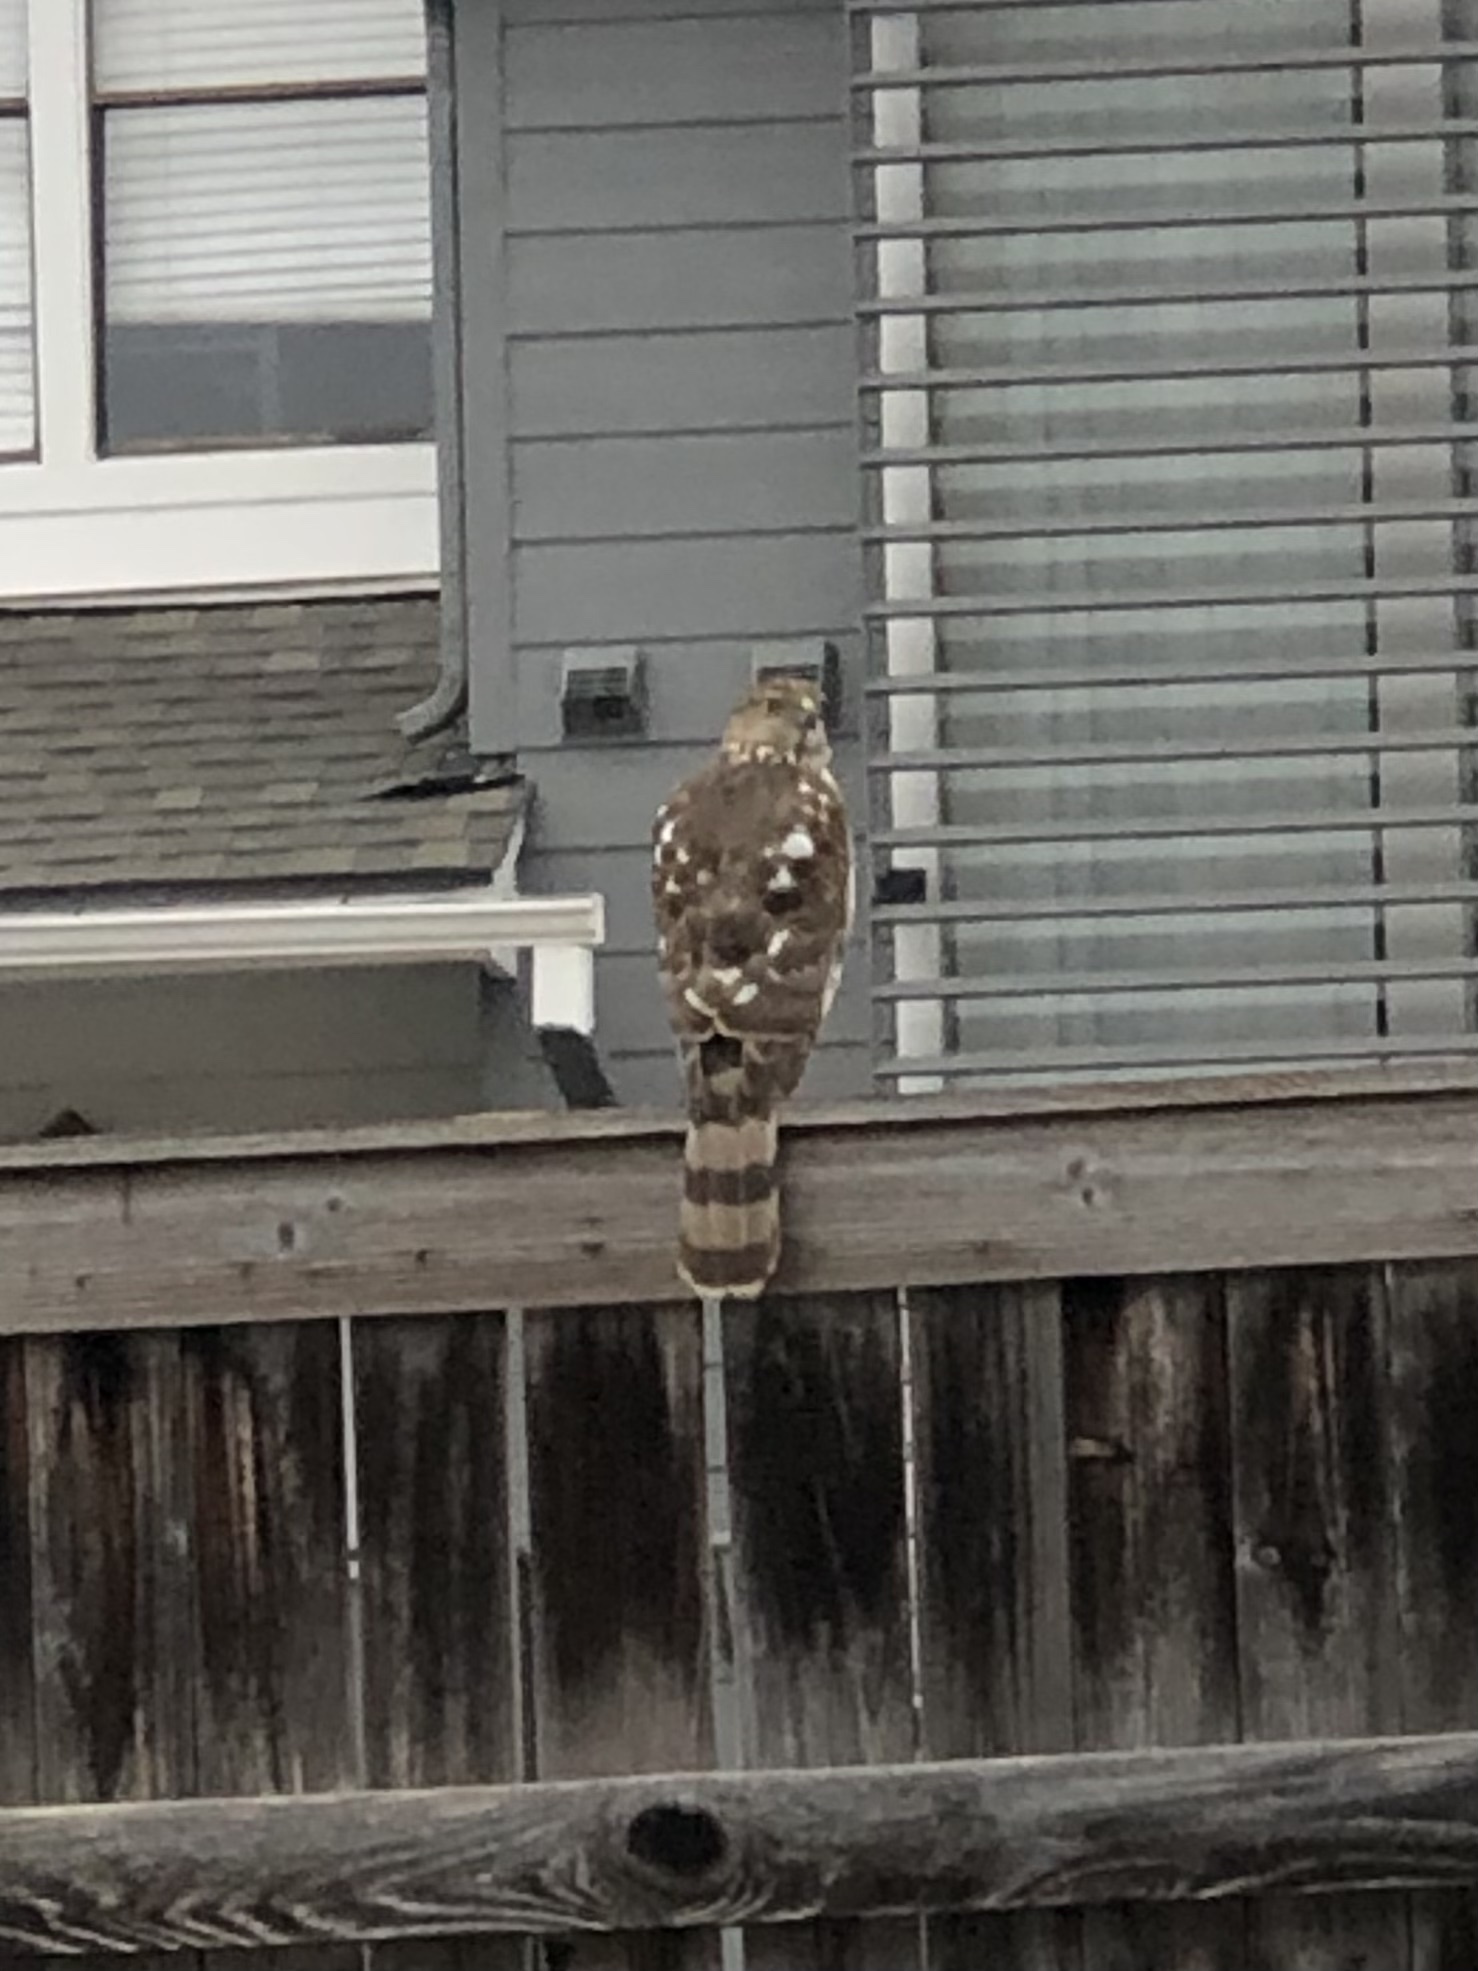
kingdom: Animalia
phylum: Chordata
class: Aves
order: Accipitriformes
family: Accipitridae
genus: Accipiter
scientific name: Accipiter cooperii
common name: Cooper's hawk
